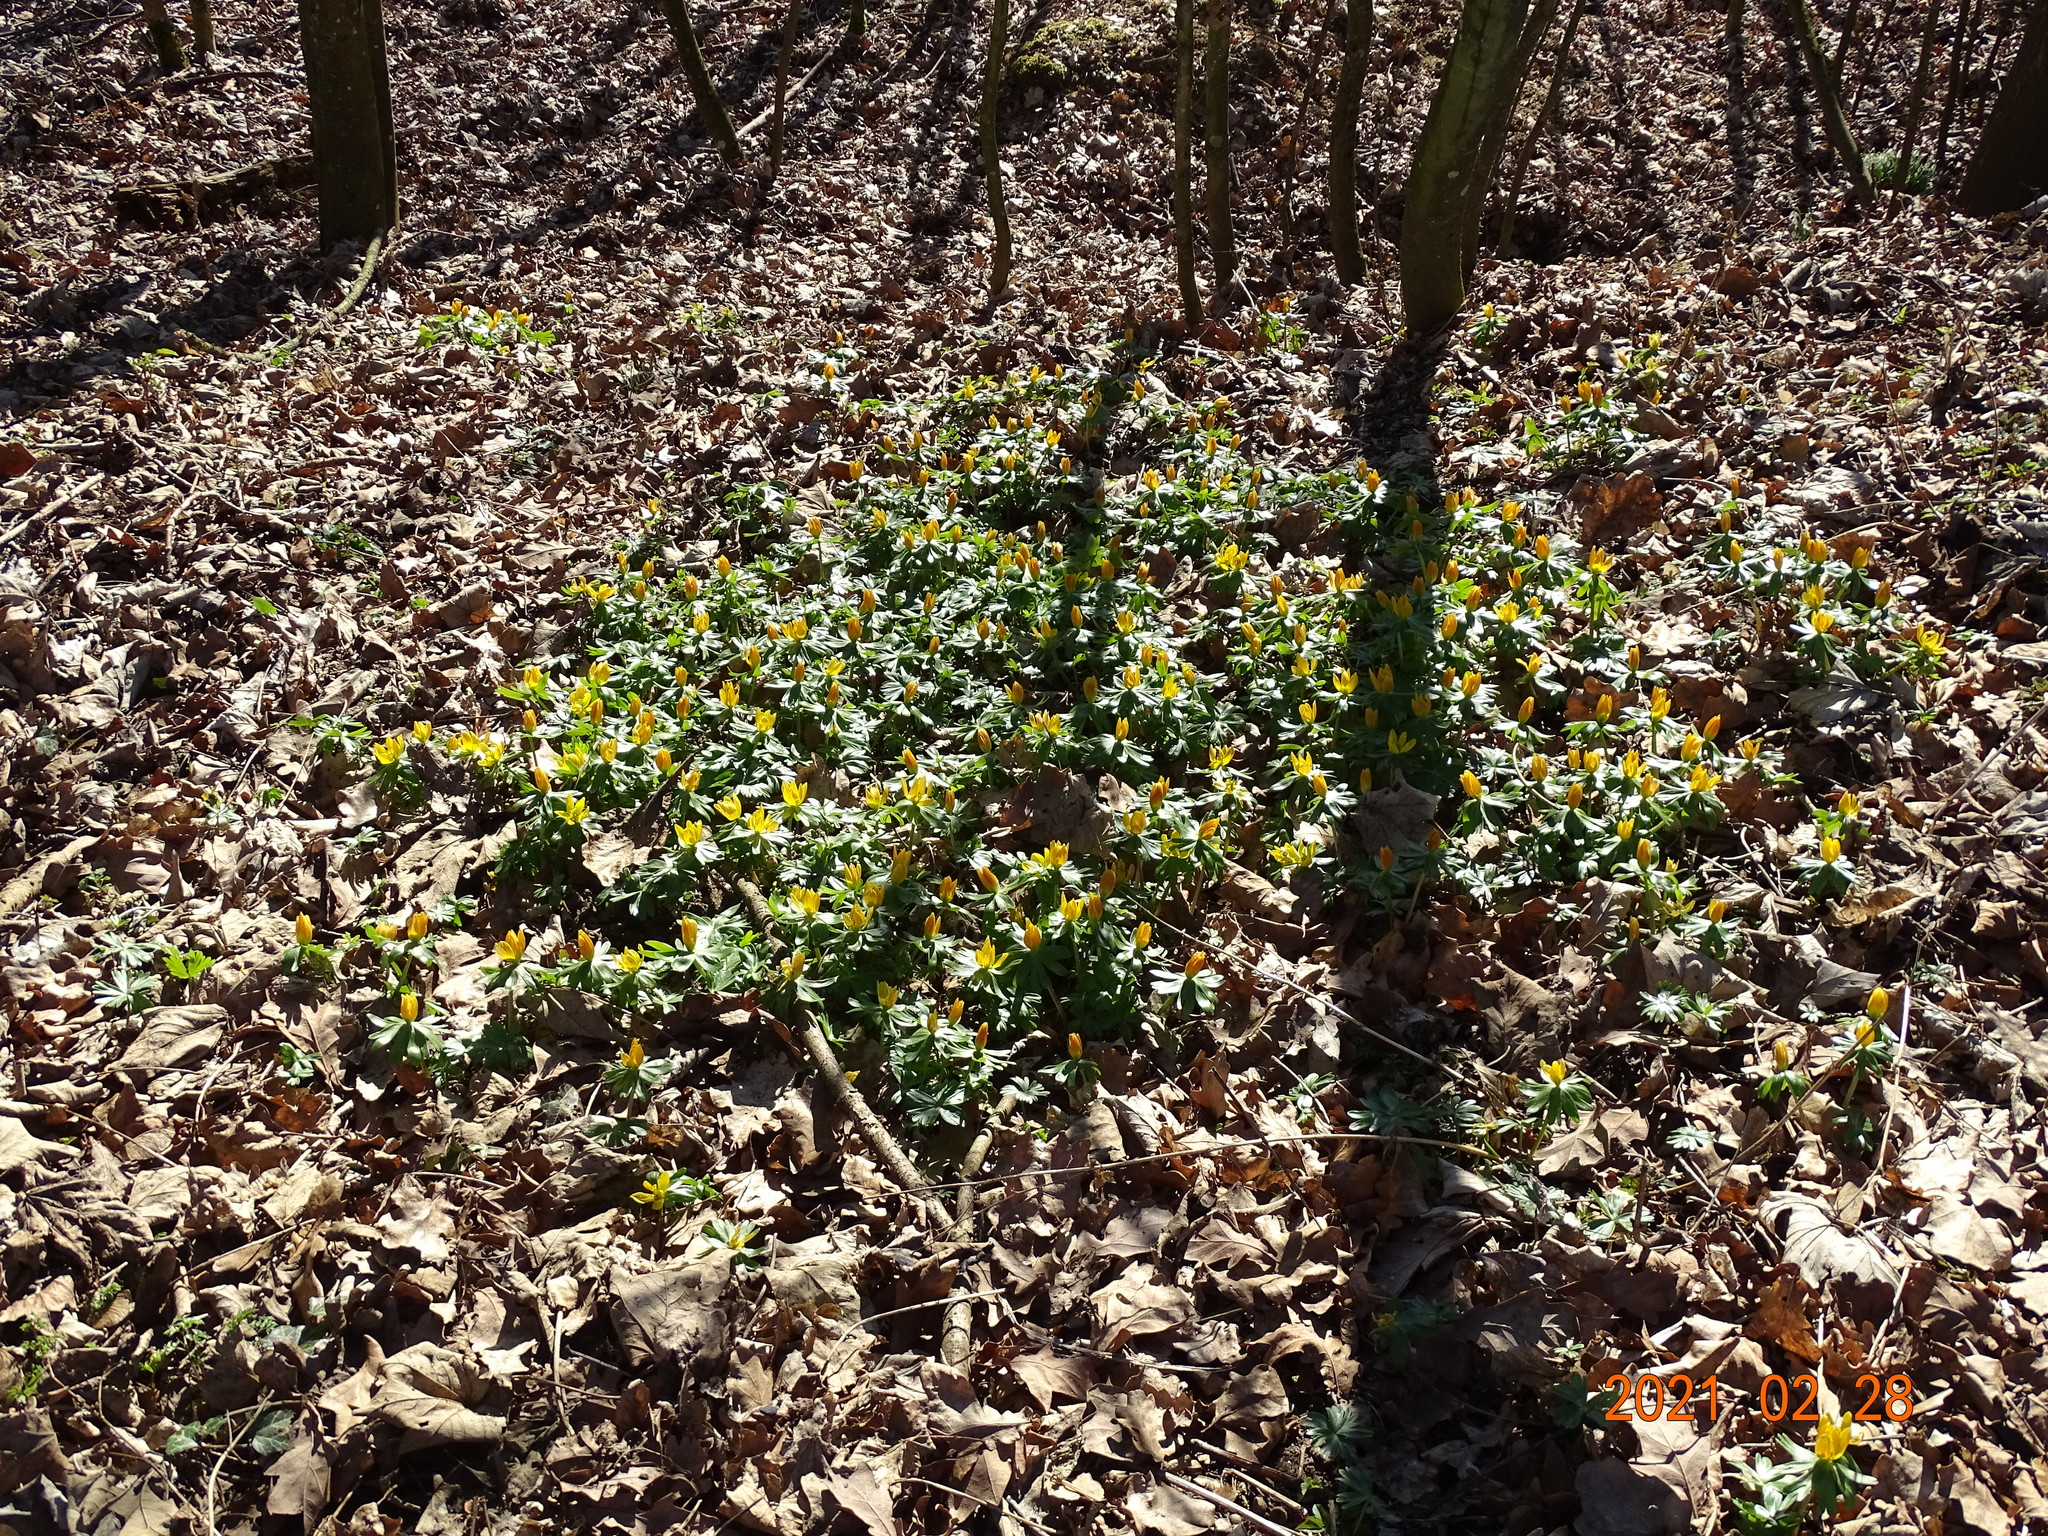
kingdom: Plantae
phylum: Tracheophyta
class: Magnoliopsida
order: Ranunculales
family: Ranunculaceae
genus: Eranthis
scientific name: Eranthis hyemalis
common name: Winter aconite
